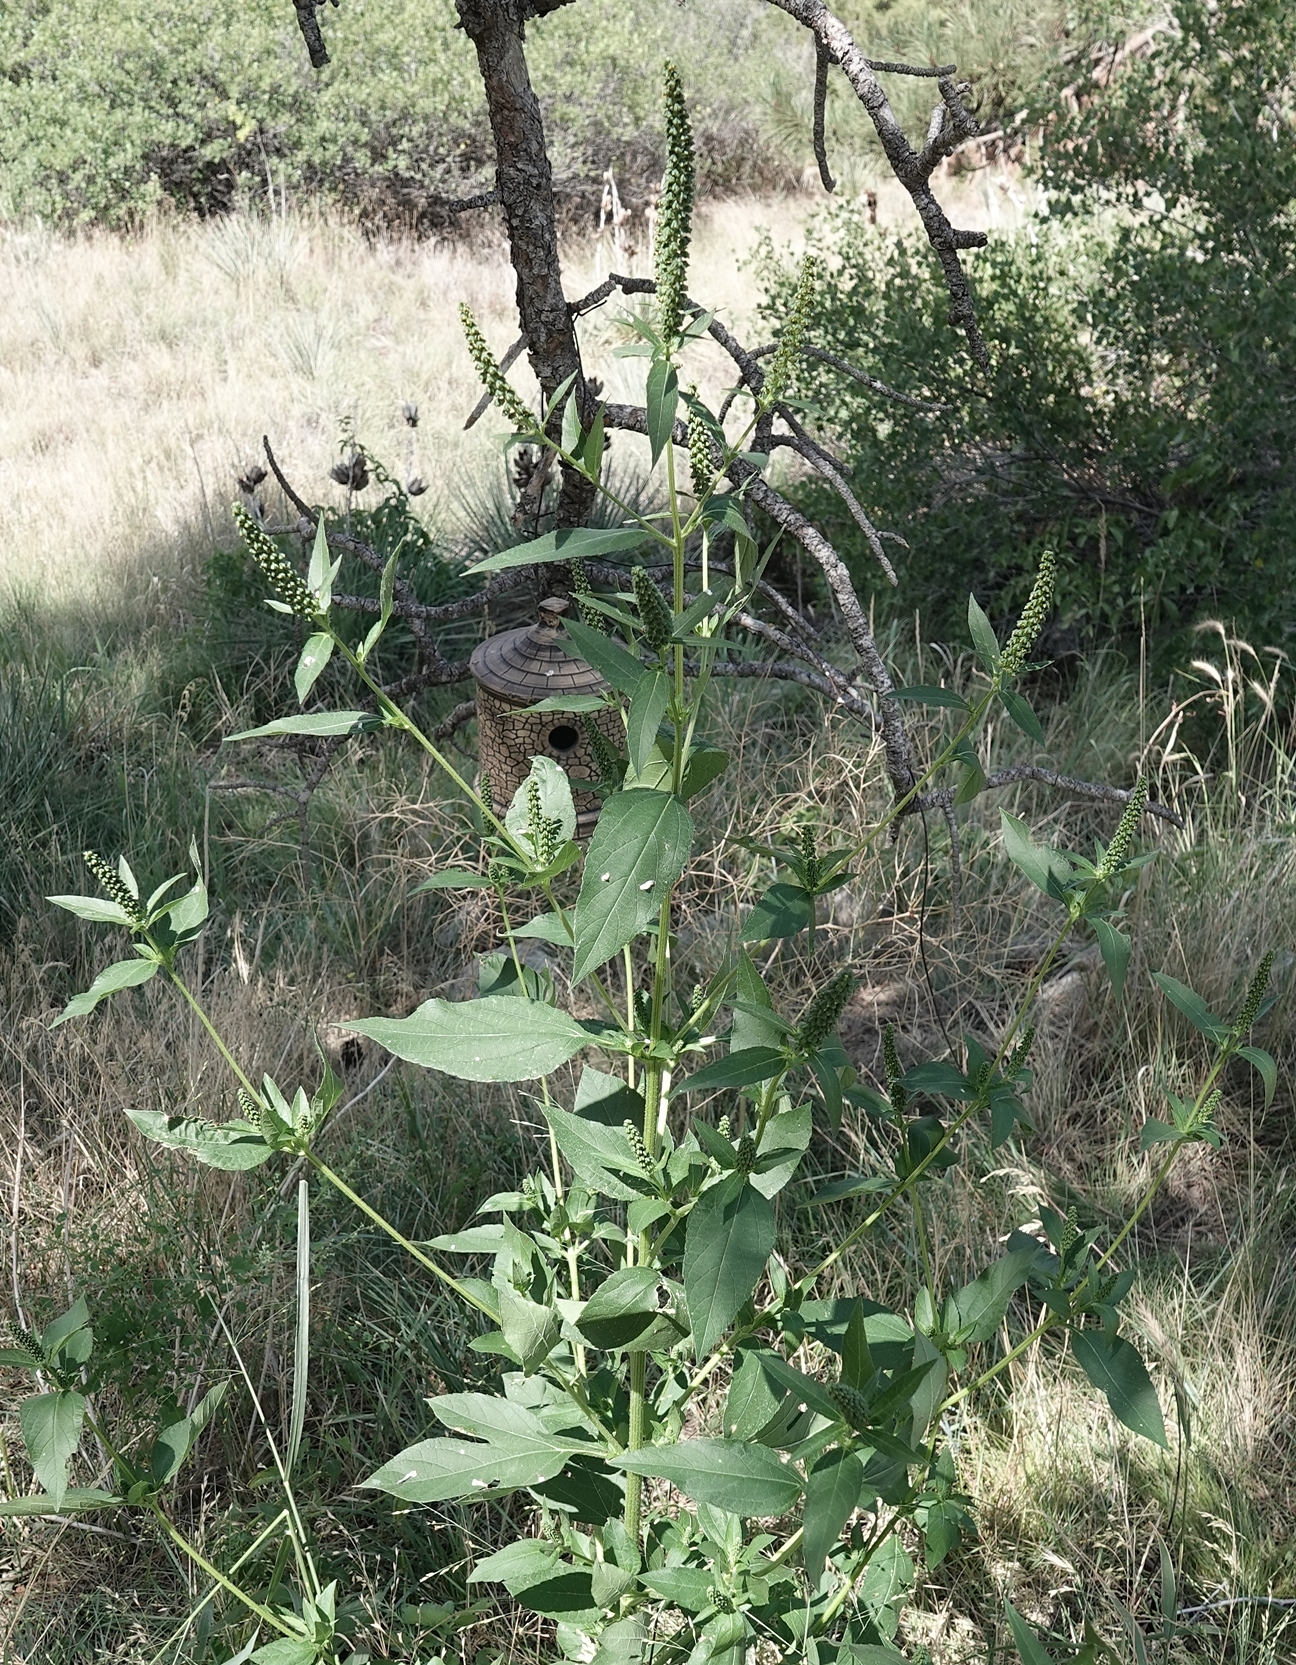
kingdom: Plantae
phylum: Tracheophyta
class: Magnoliopsida
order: Asterales
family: Asteraceae
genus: Ambrosia
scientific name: Ambrosia trifida
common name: Giant ragweed
